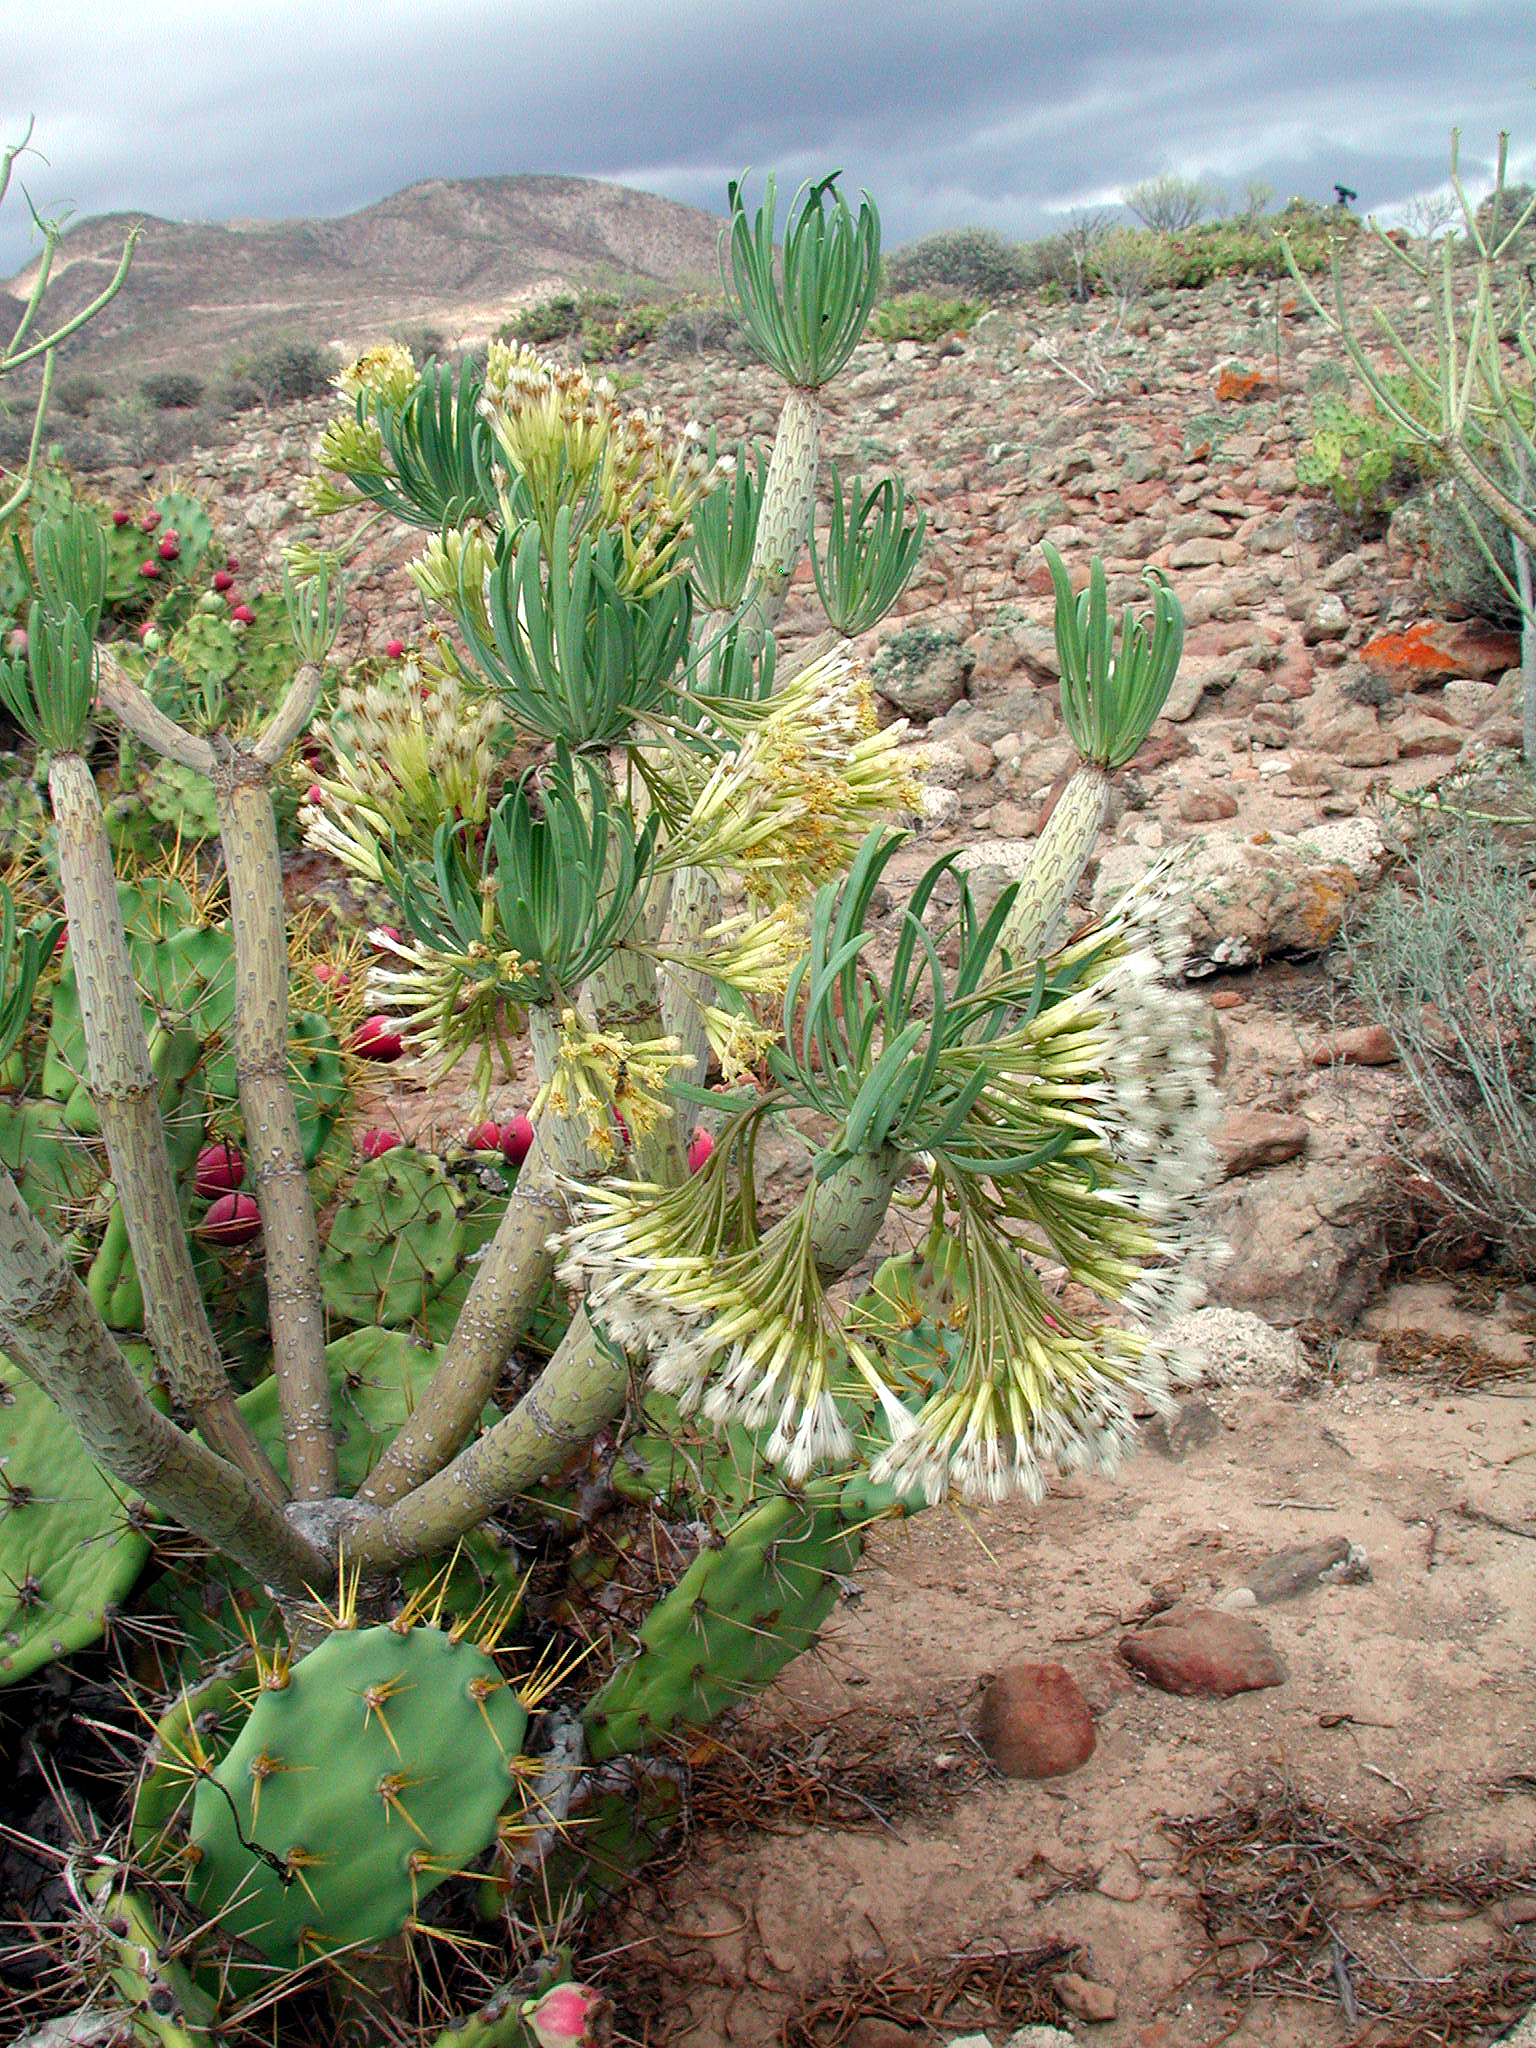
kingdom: Plantae
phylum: Tracheophyta
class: Magnoliopsida
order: Asterales
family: Asteraceae
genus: Kleinia
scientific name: Kleinia neriifolia
